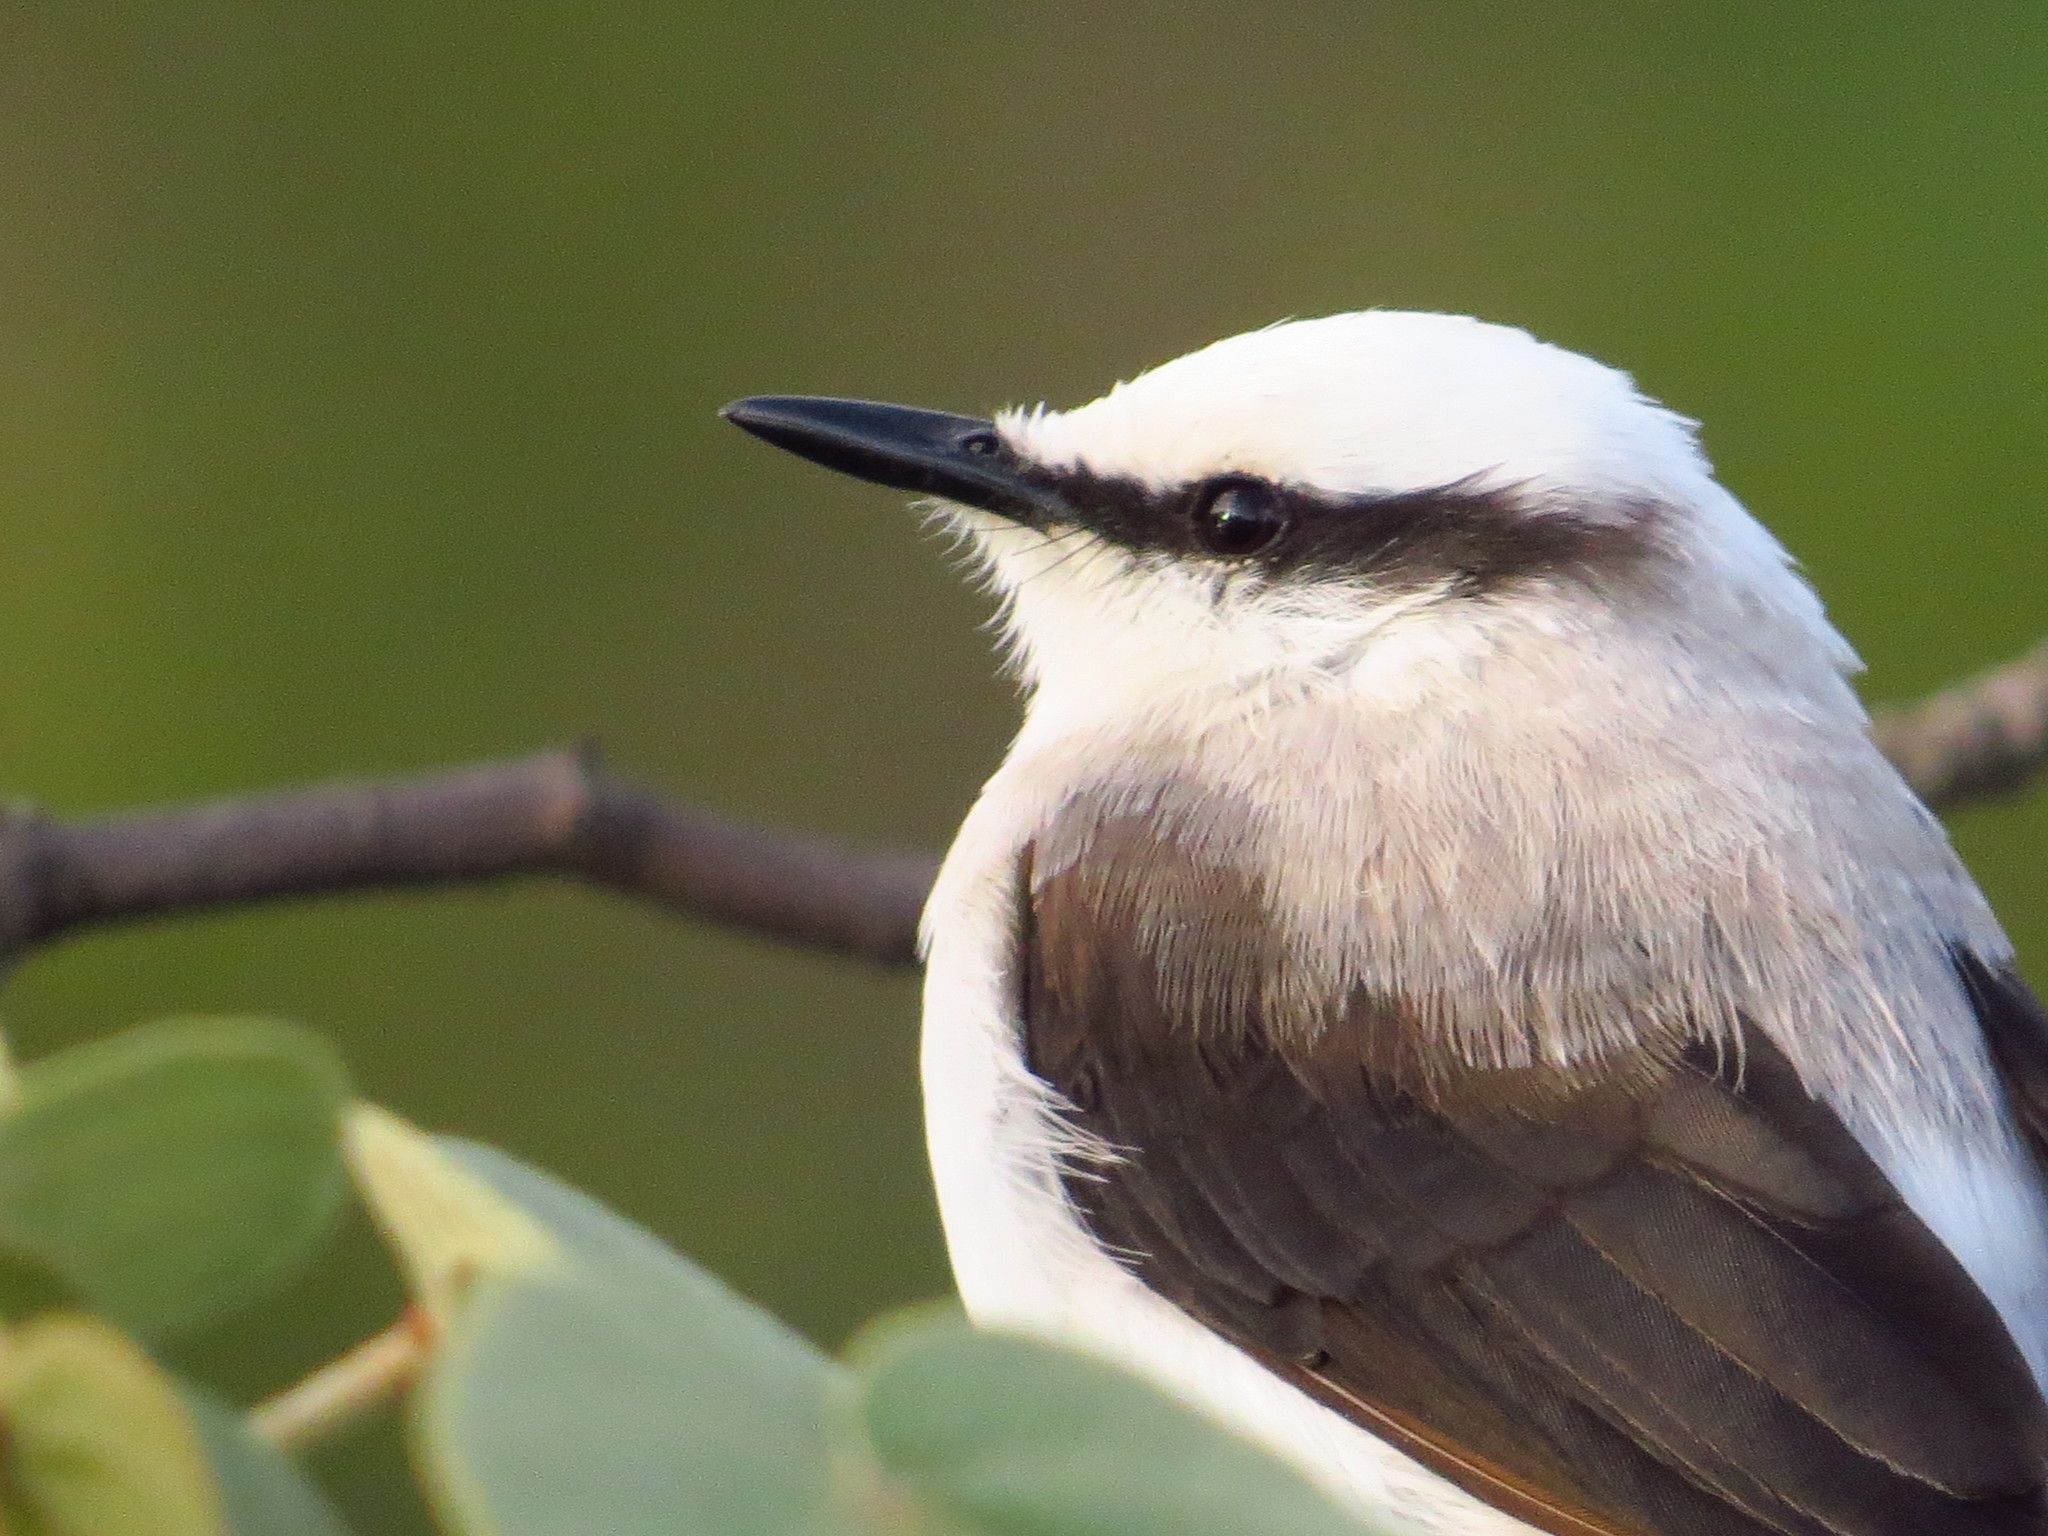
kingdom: Animalia
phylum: Chordata
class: Aves
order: Passeriformes
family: Tyrannidae
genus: Fluvicola
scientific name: Fluvicola nengeta
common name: Masked water tyrant
